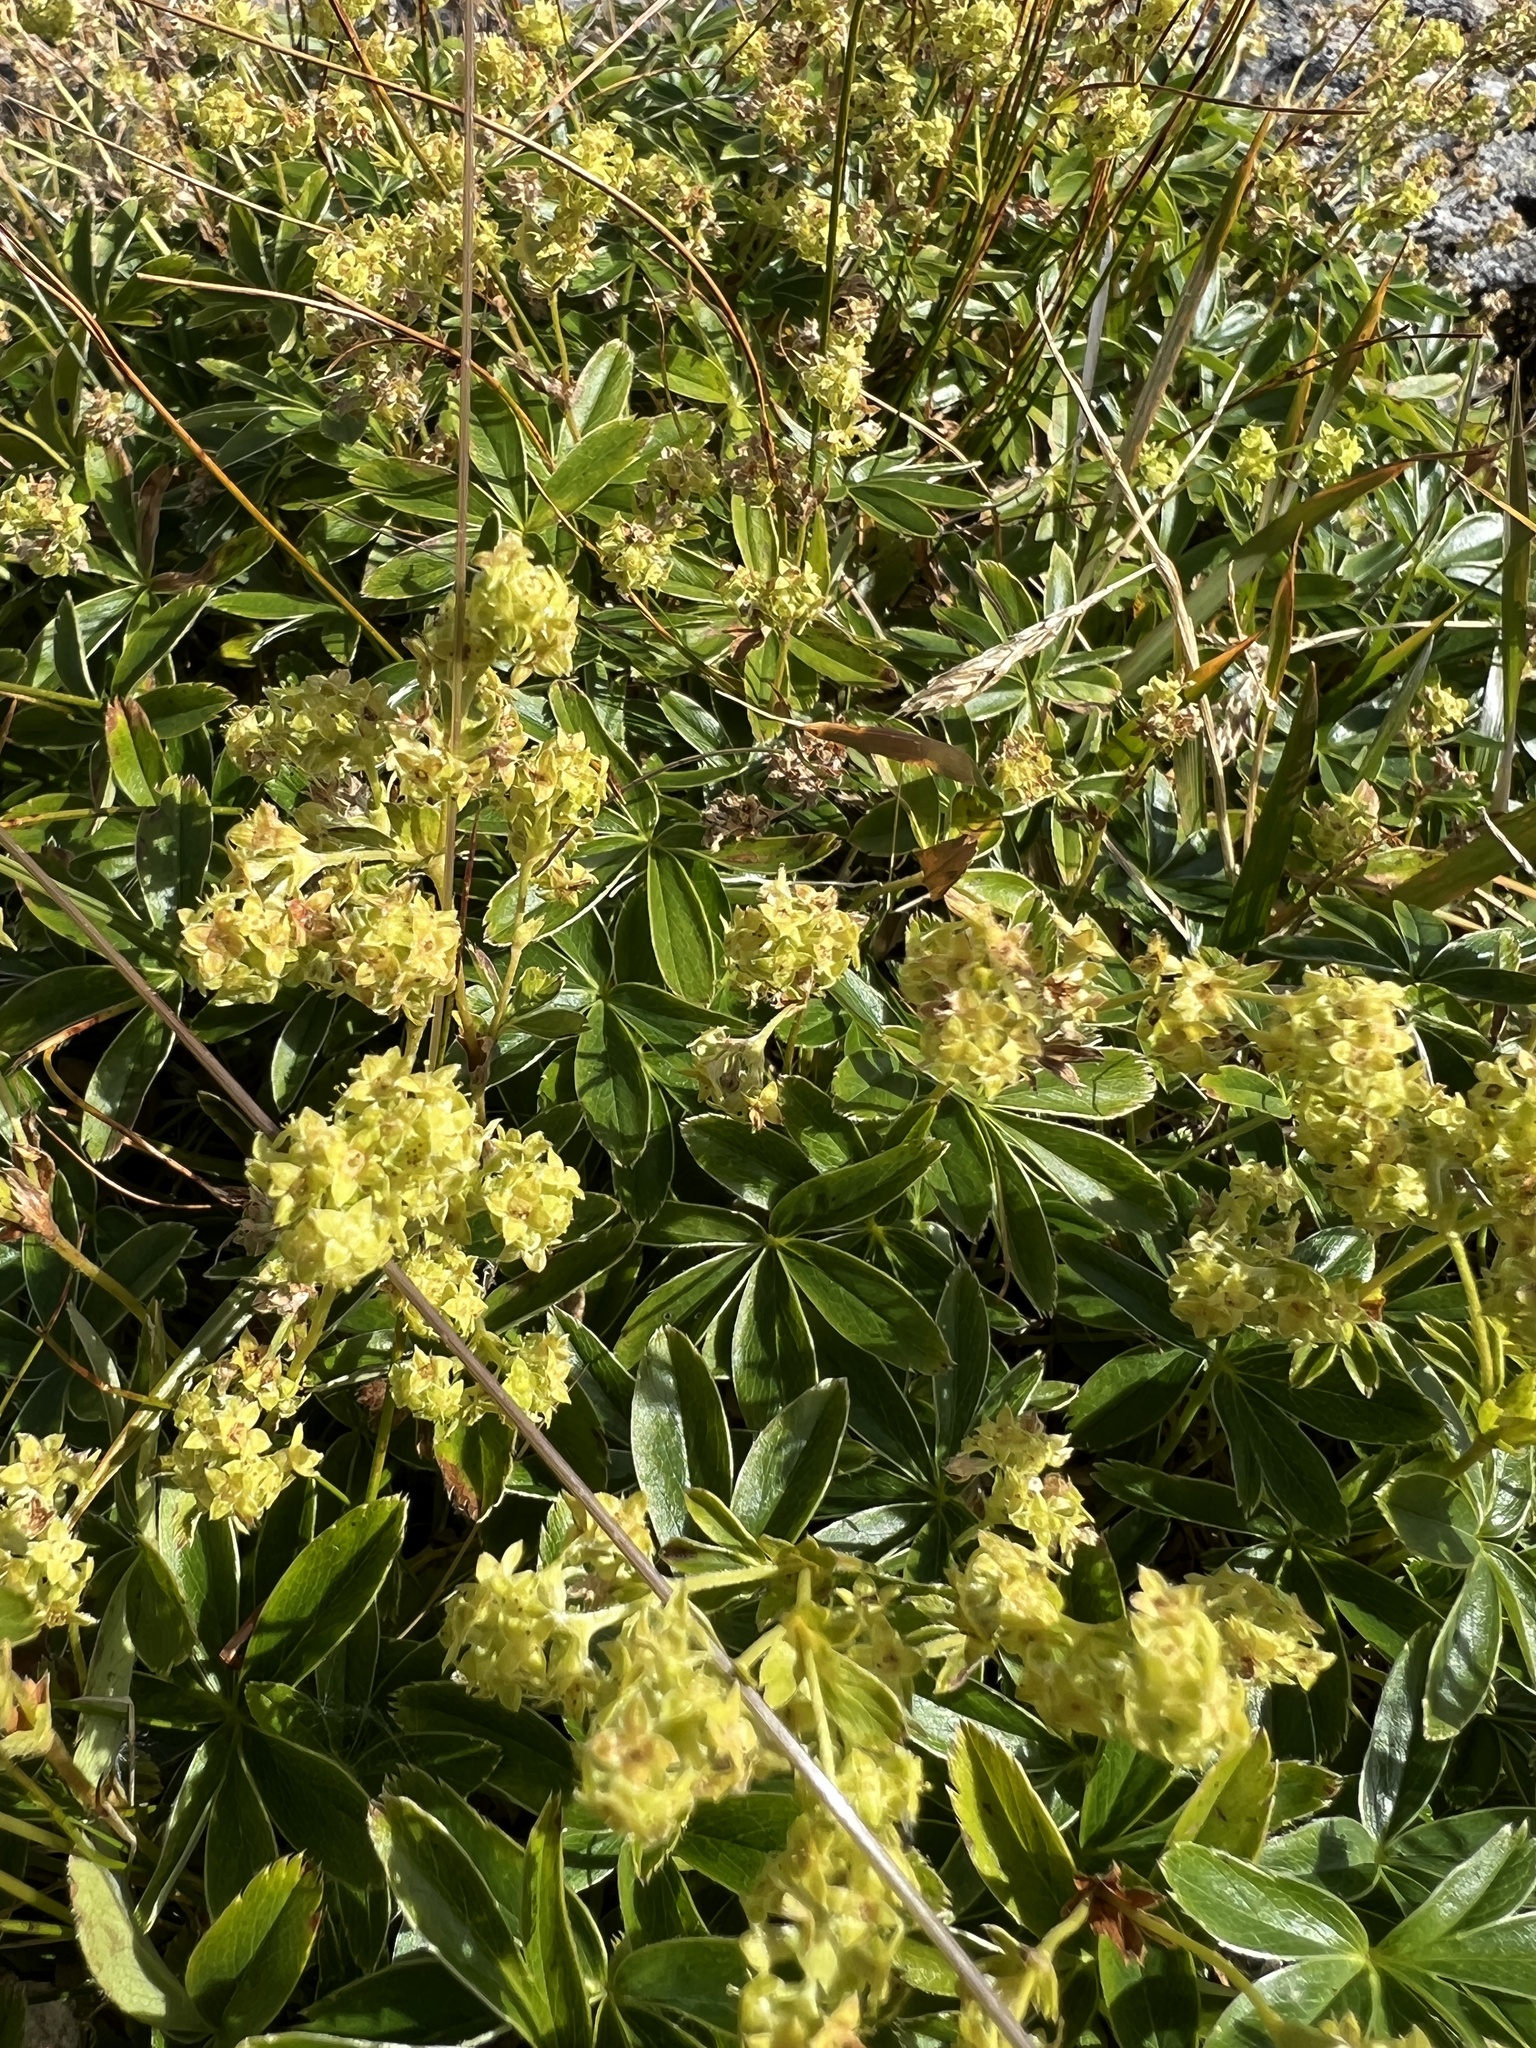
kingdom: Plantae
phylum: Tracheophyta
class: Magnoliopsida
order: Rosales
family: Rosaceae
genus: Alchemilla
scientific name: Alchemilla alpina
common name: Alpine lady's-mantle
